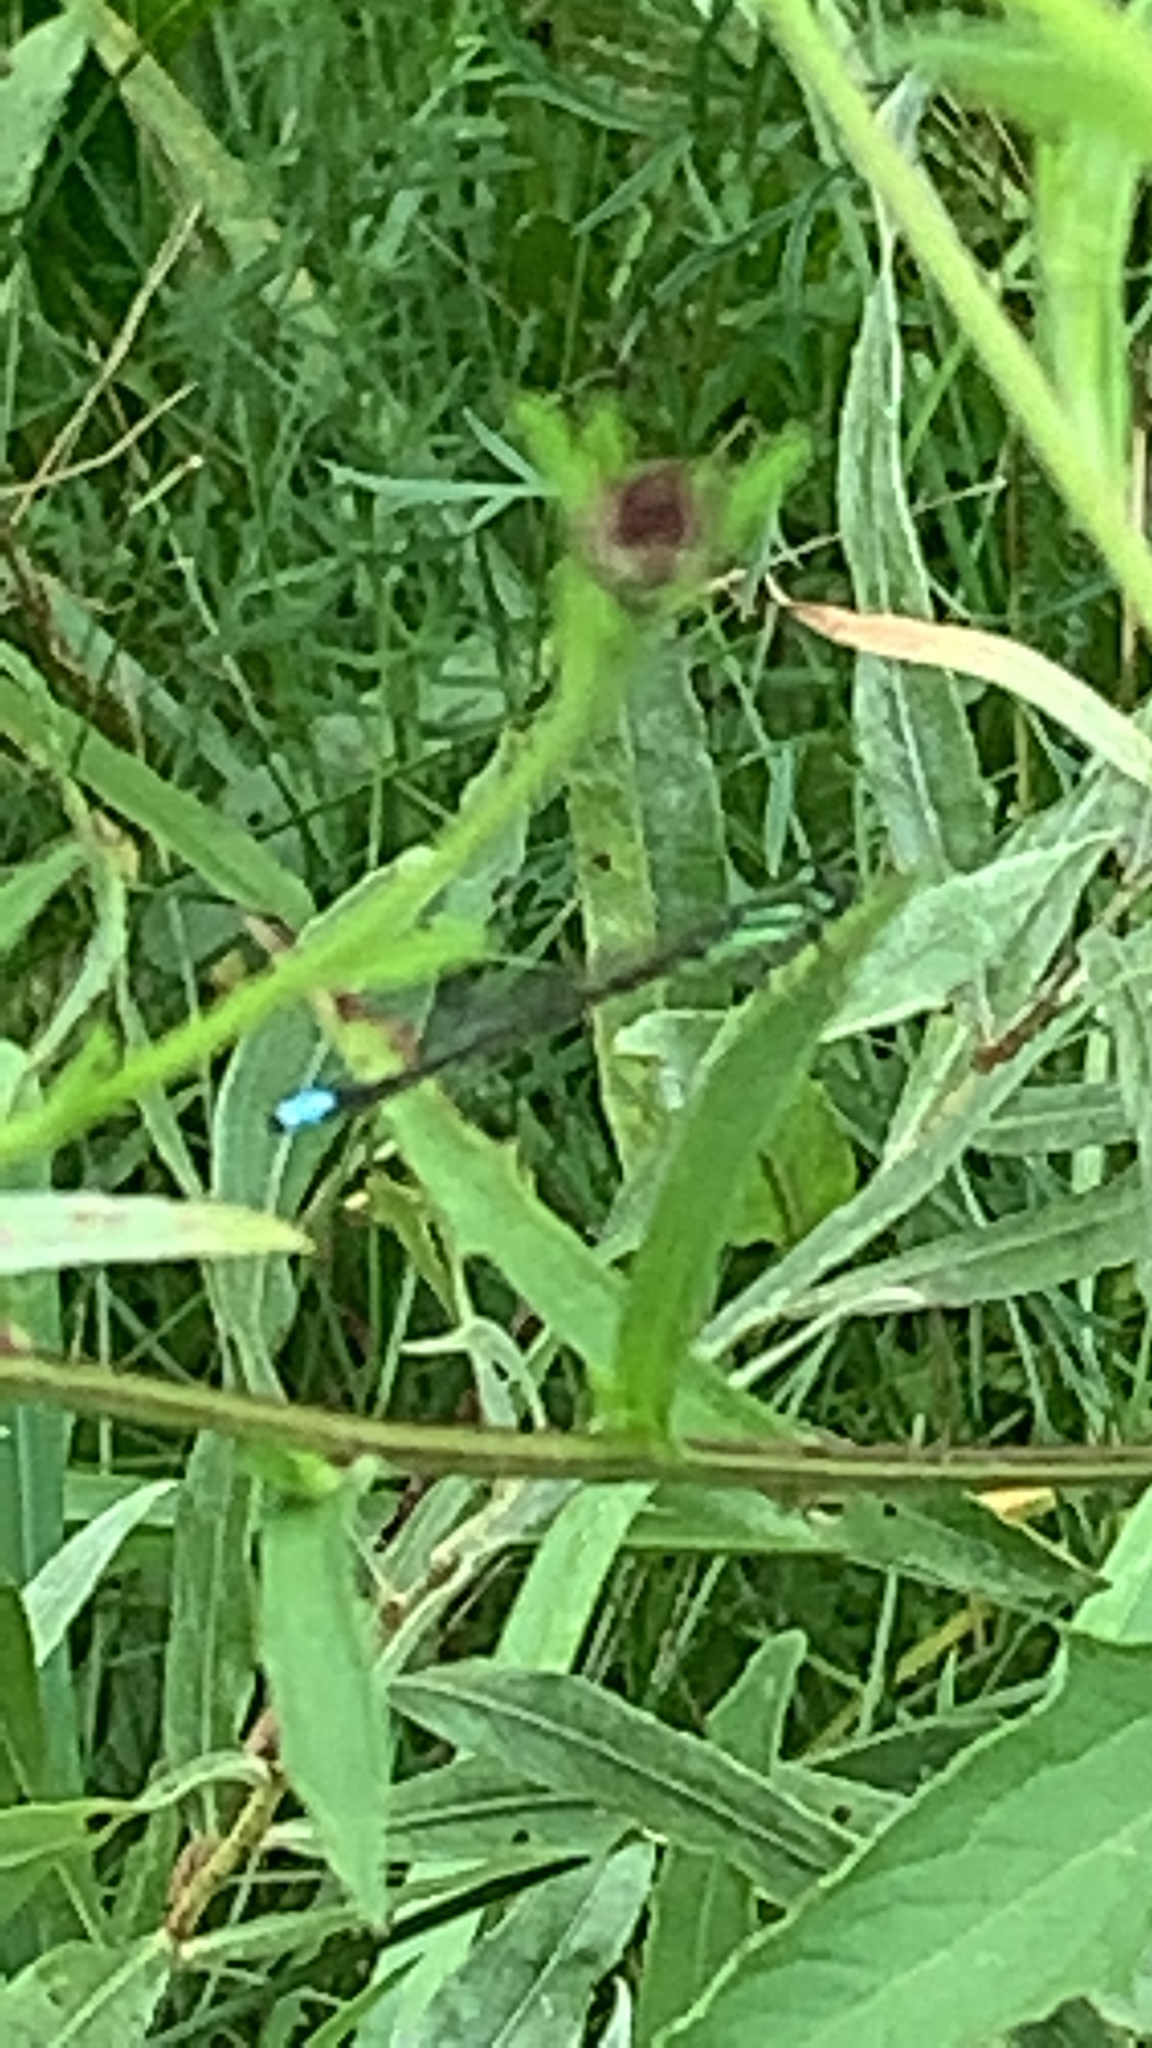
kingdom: Animalia
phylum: Arthropoda
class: Insecta
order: Odonata
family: Coenagrionidae
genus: Ischnura
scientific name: Ischnura verticalis
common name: Eastern forktail
